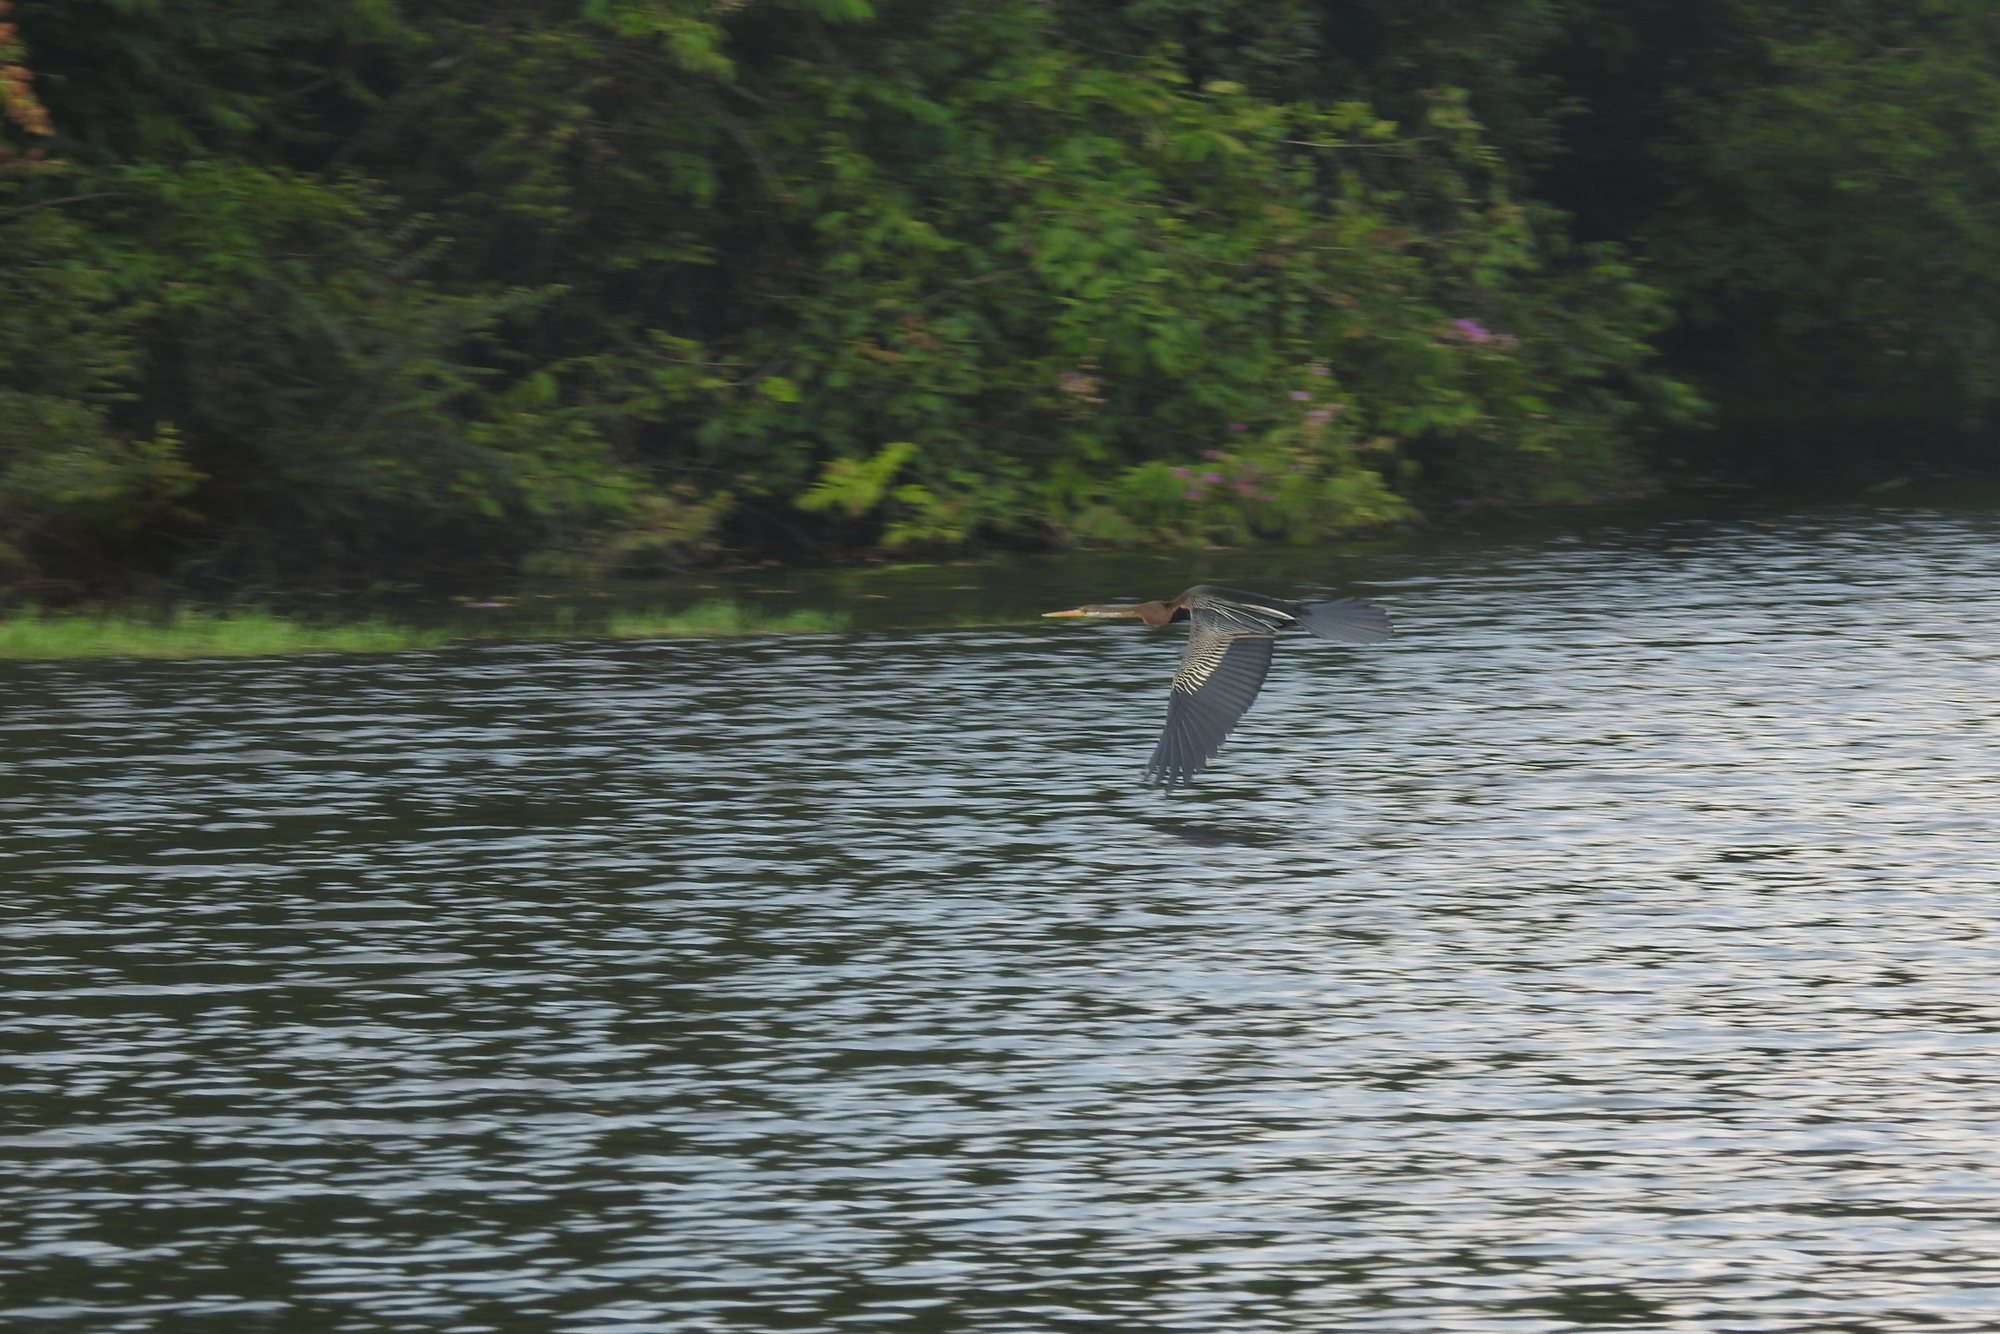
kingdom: Animalia
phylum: Chordata
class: Aves
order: Suliformes
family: Anhingidae
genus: Anhinga
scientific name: Anhinga melanogaster
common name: Oriental darter
